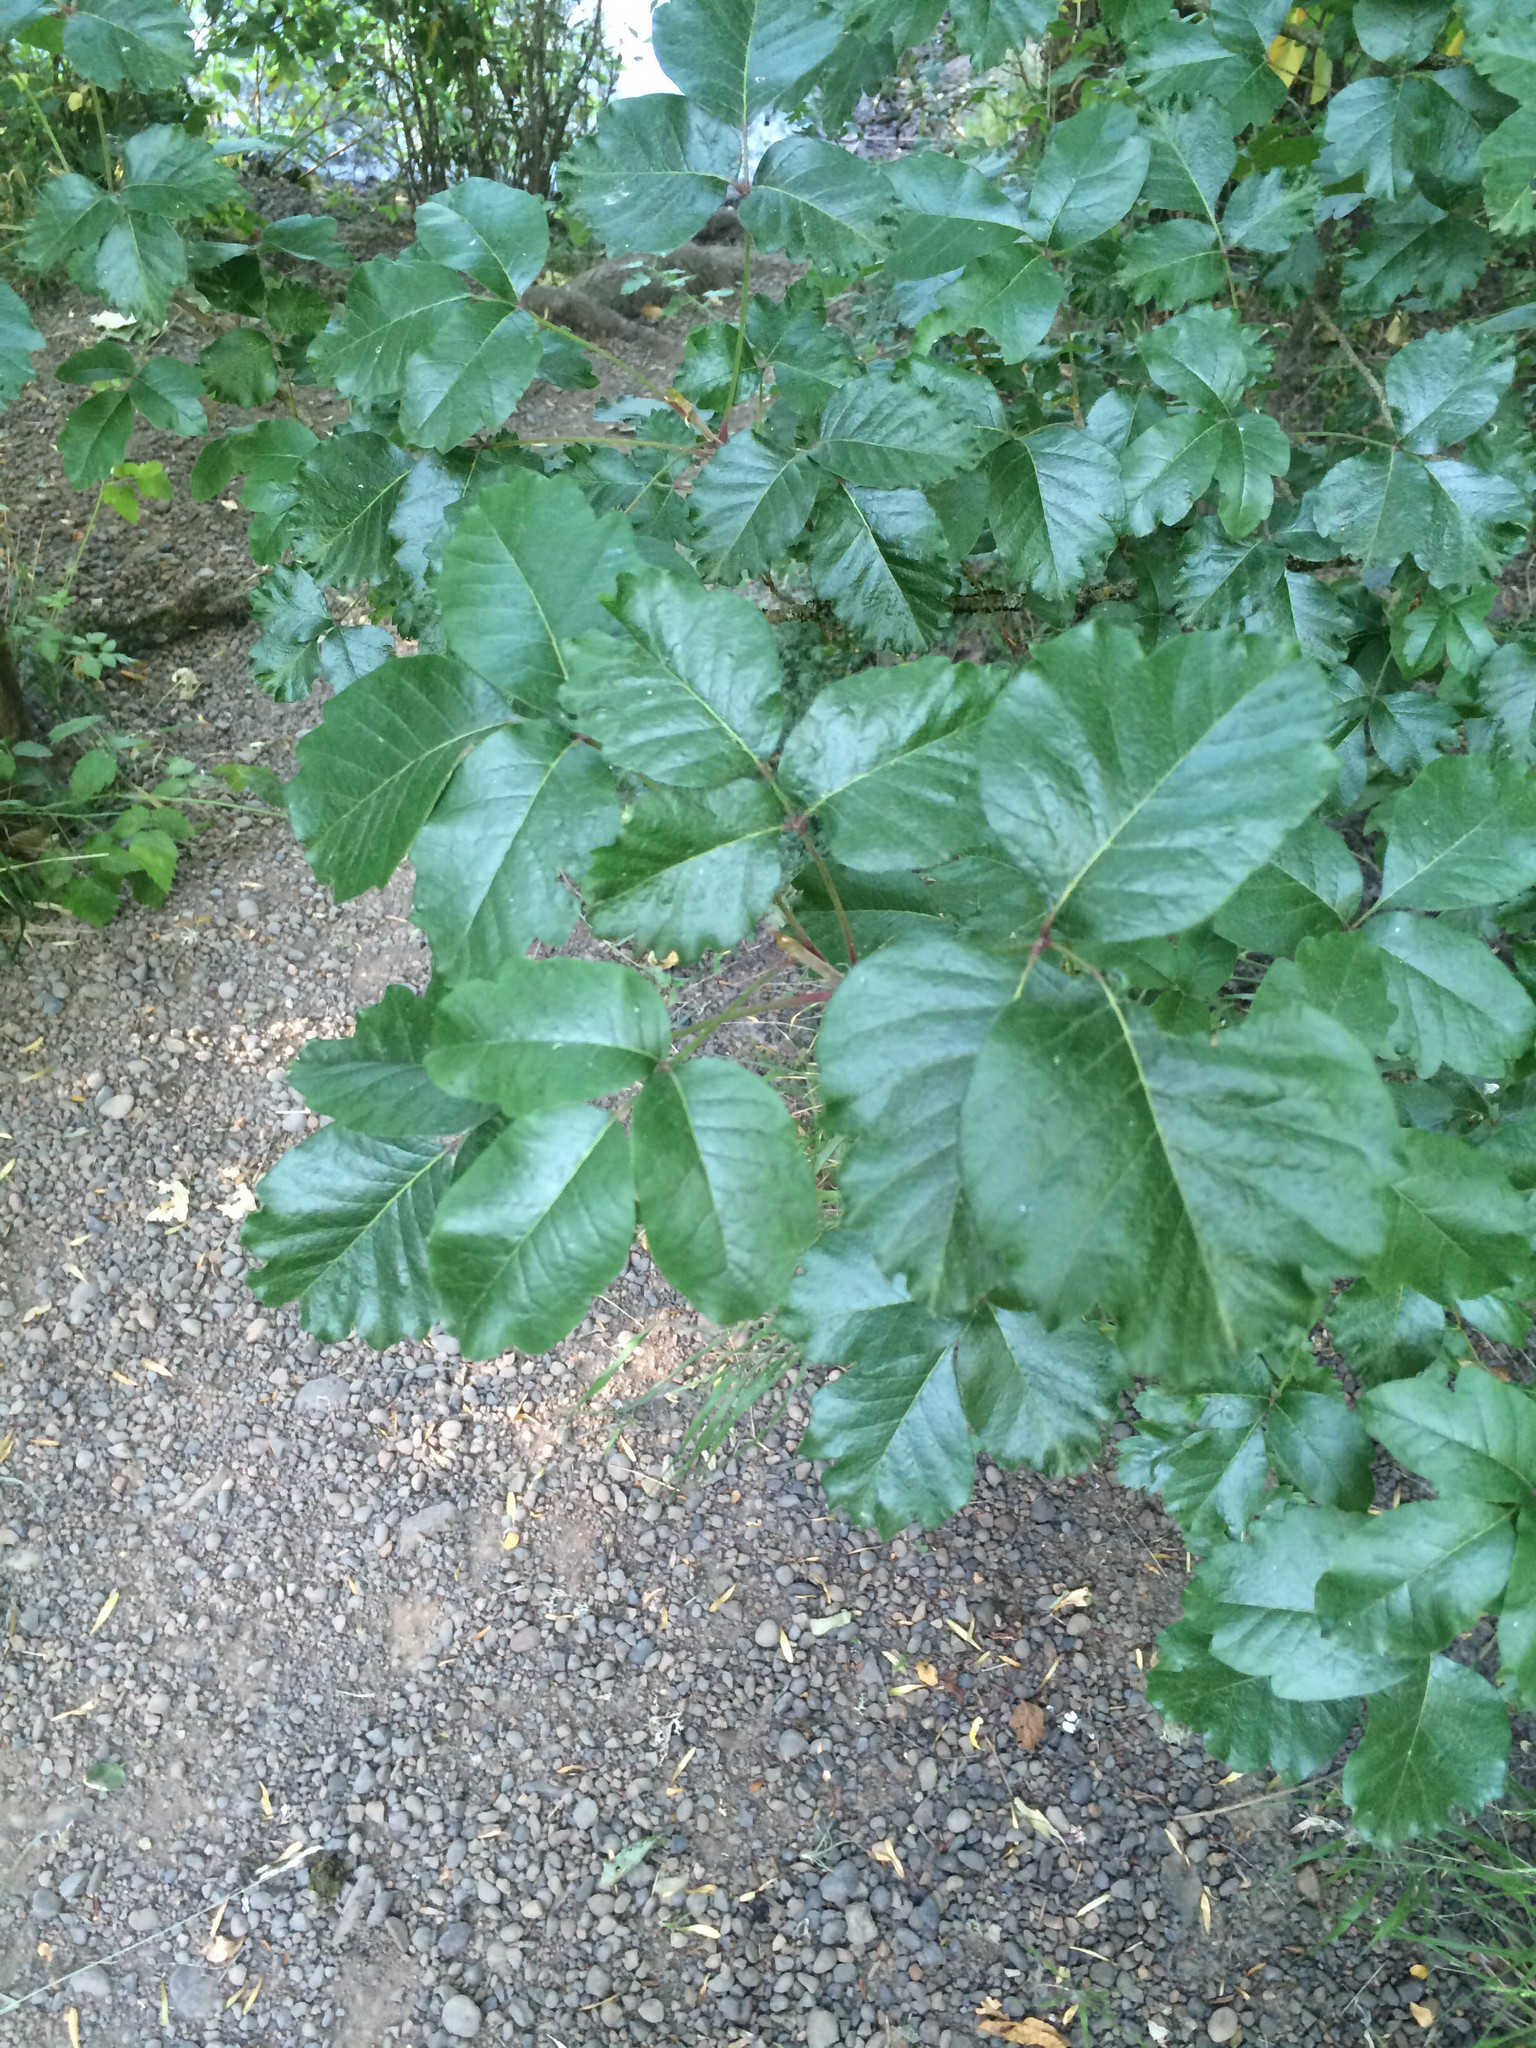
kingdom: Plantae
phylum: Tracheophyta
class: Magnoliopsida
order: Sapindales
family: Anacardiaceae
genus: Toxicodendron
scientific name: Toxicodendron diversilobum
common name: Pacific poison-oak
